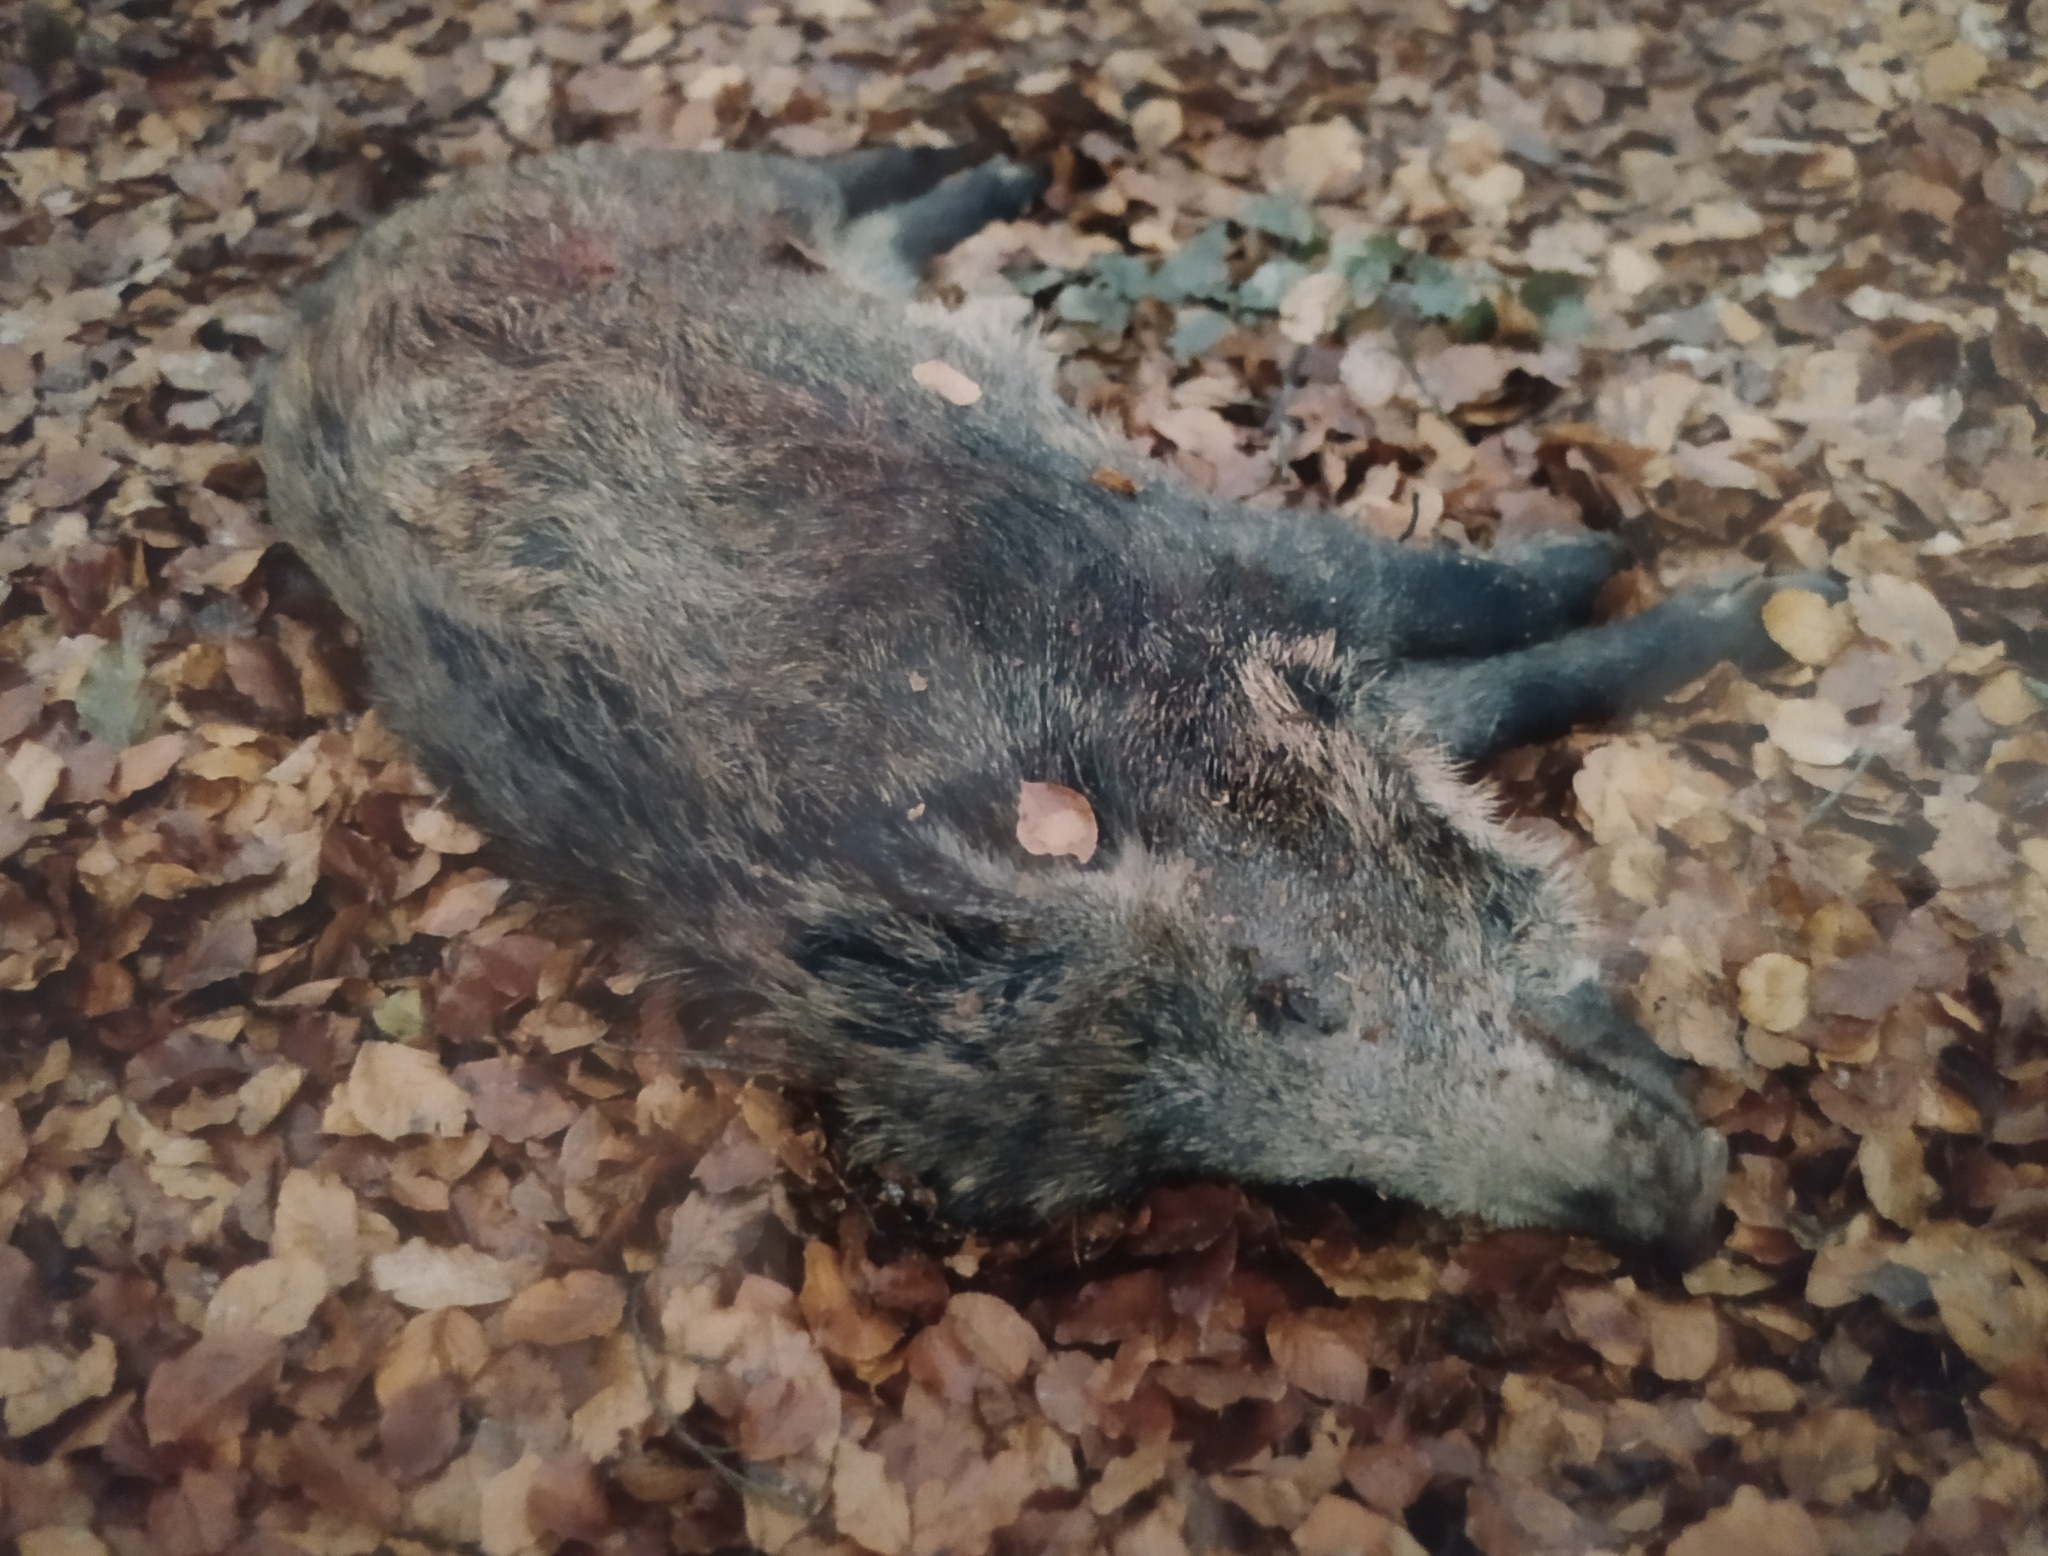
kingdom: Animalia
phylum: Chordata
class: Mammalia
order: Artiodactyla
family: Suidae
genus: Sus
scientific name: Sus scrofa
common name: Wild boar
